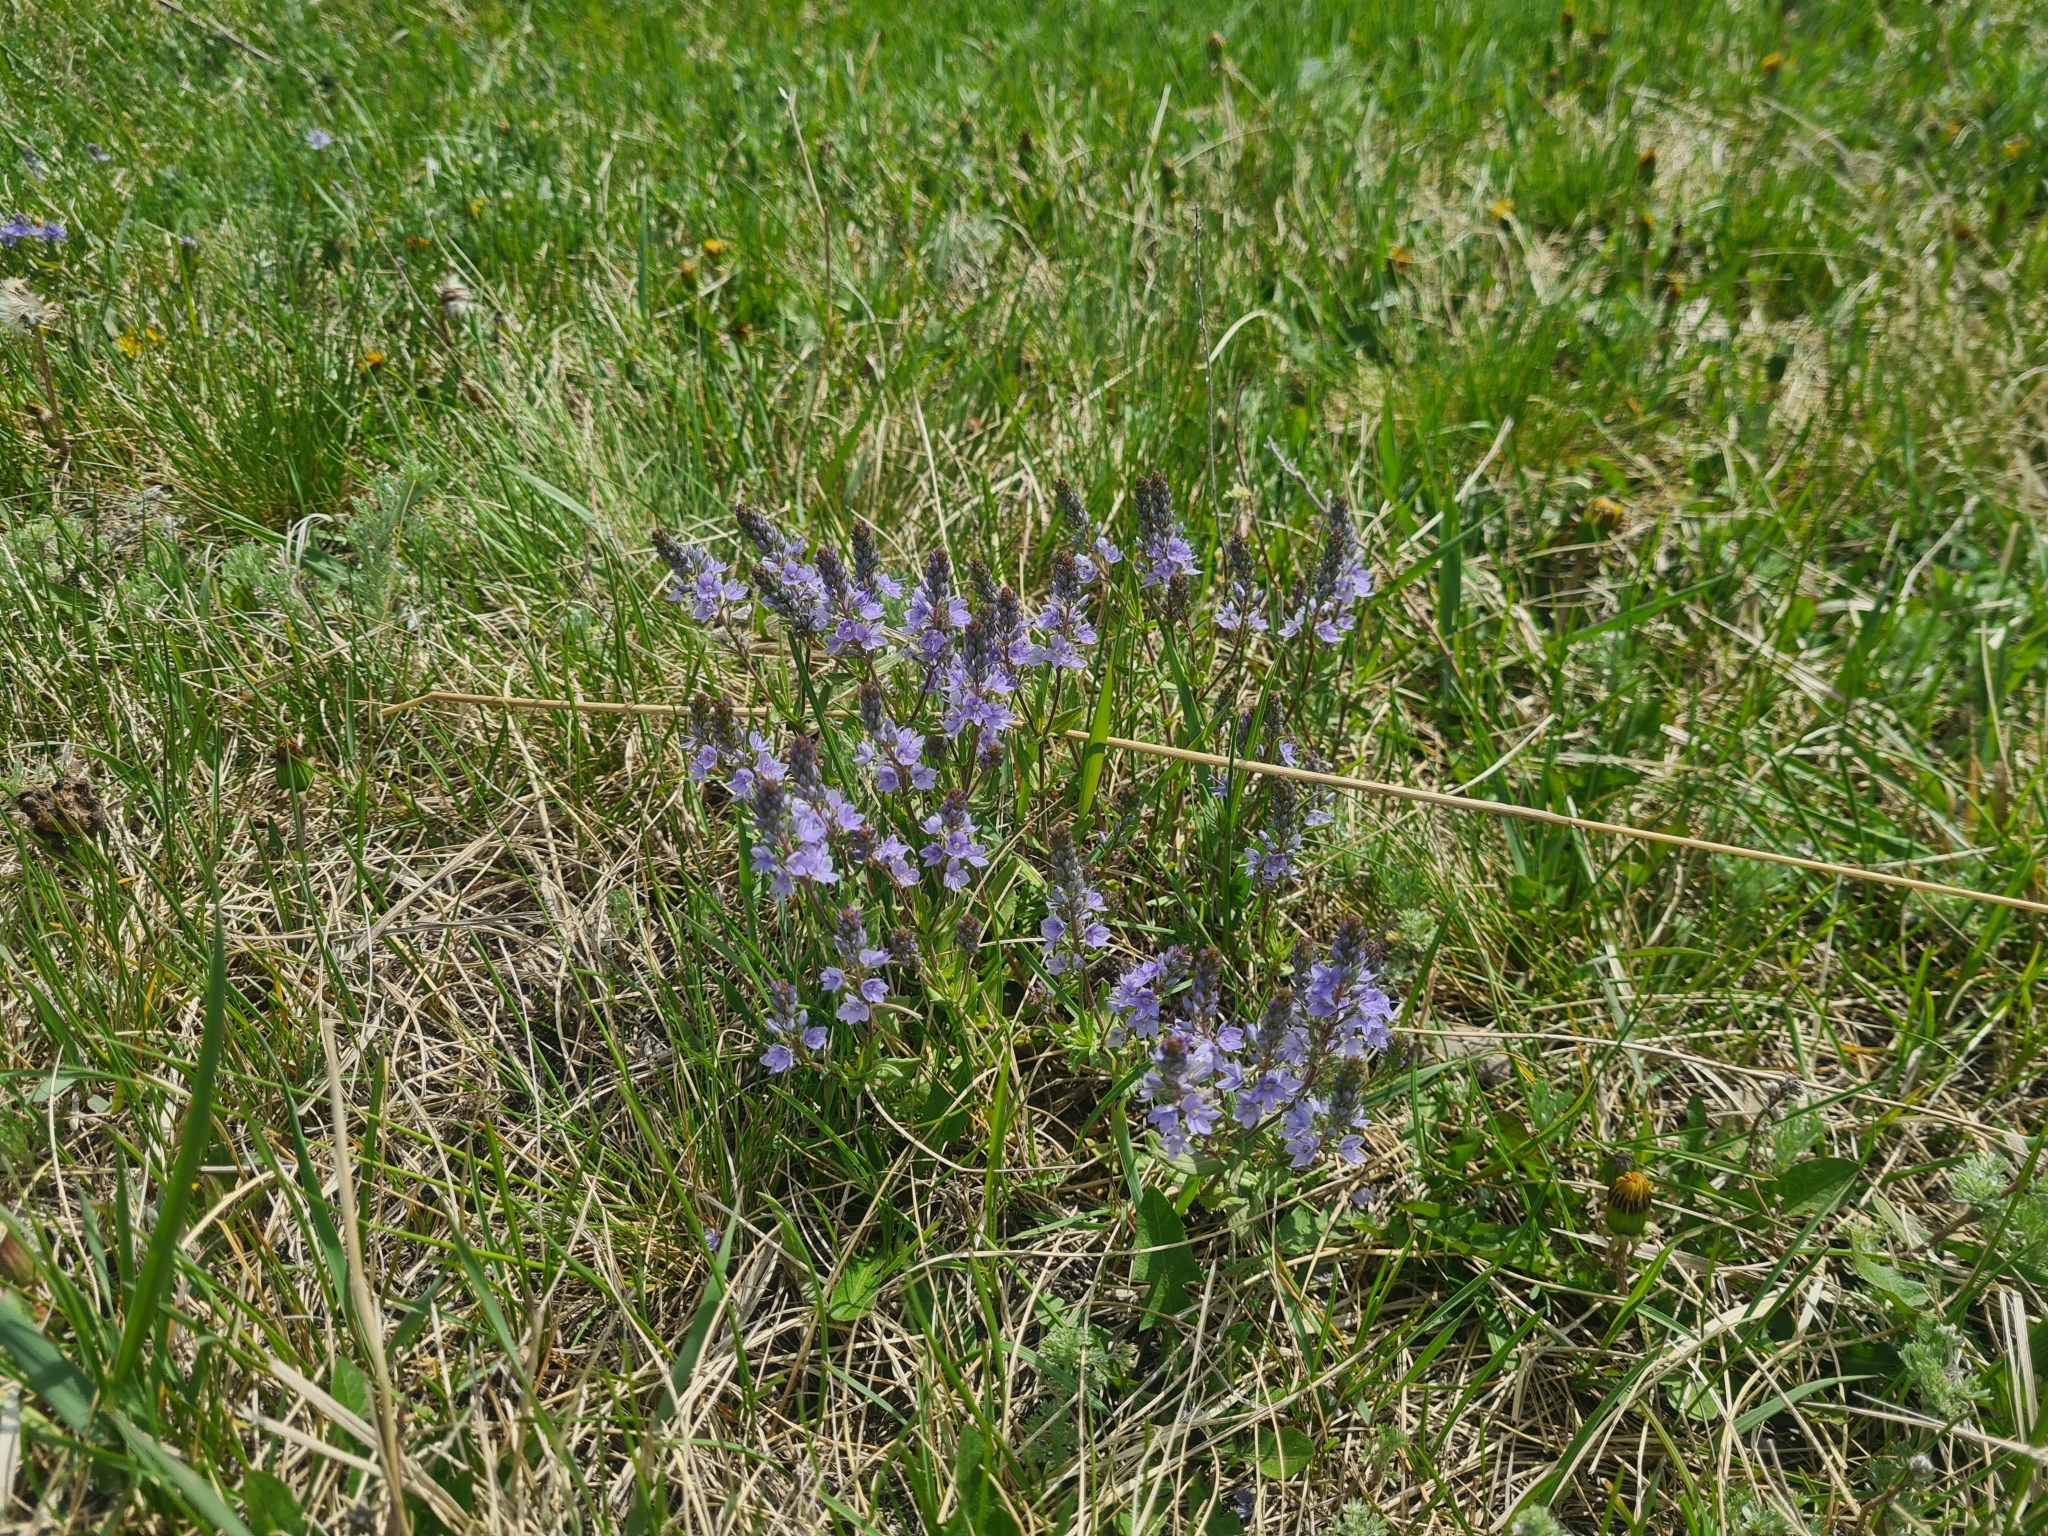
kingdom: Plantae
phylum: Tracheophyta
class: Magnoliopsida
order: Lamiales
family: Plantaginaceae
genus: Veronica
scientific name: Veronica prostrata
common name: Prostrate speedwell
